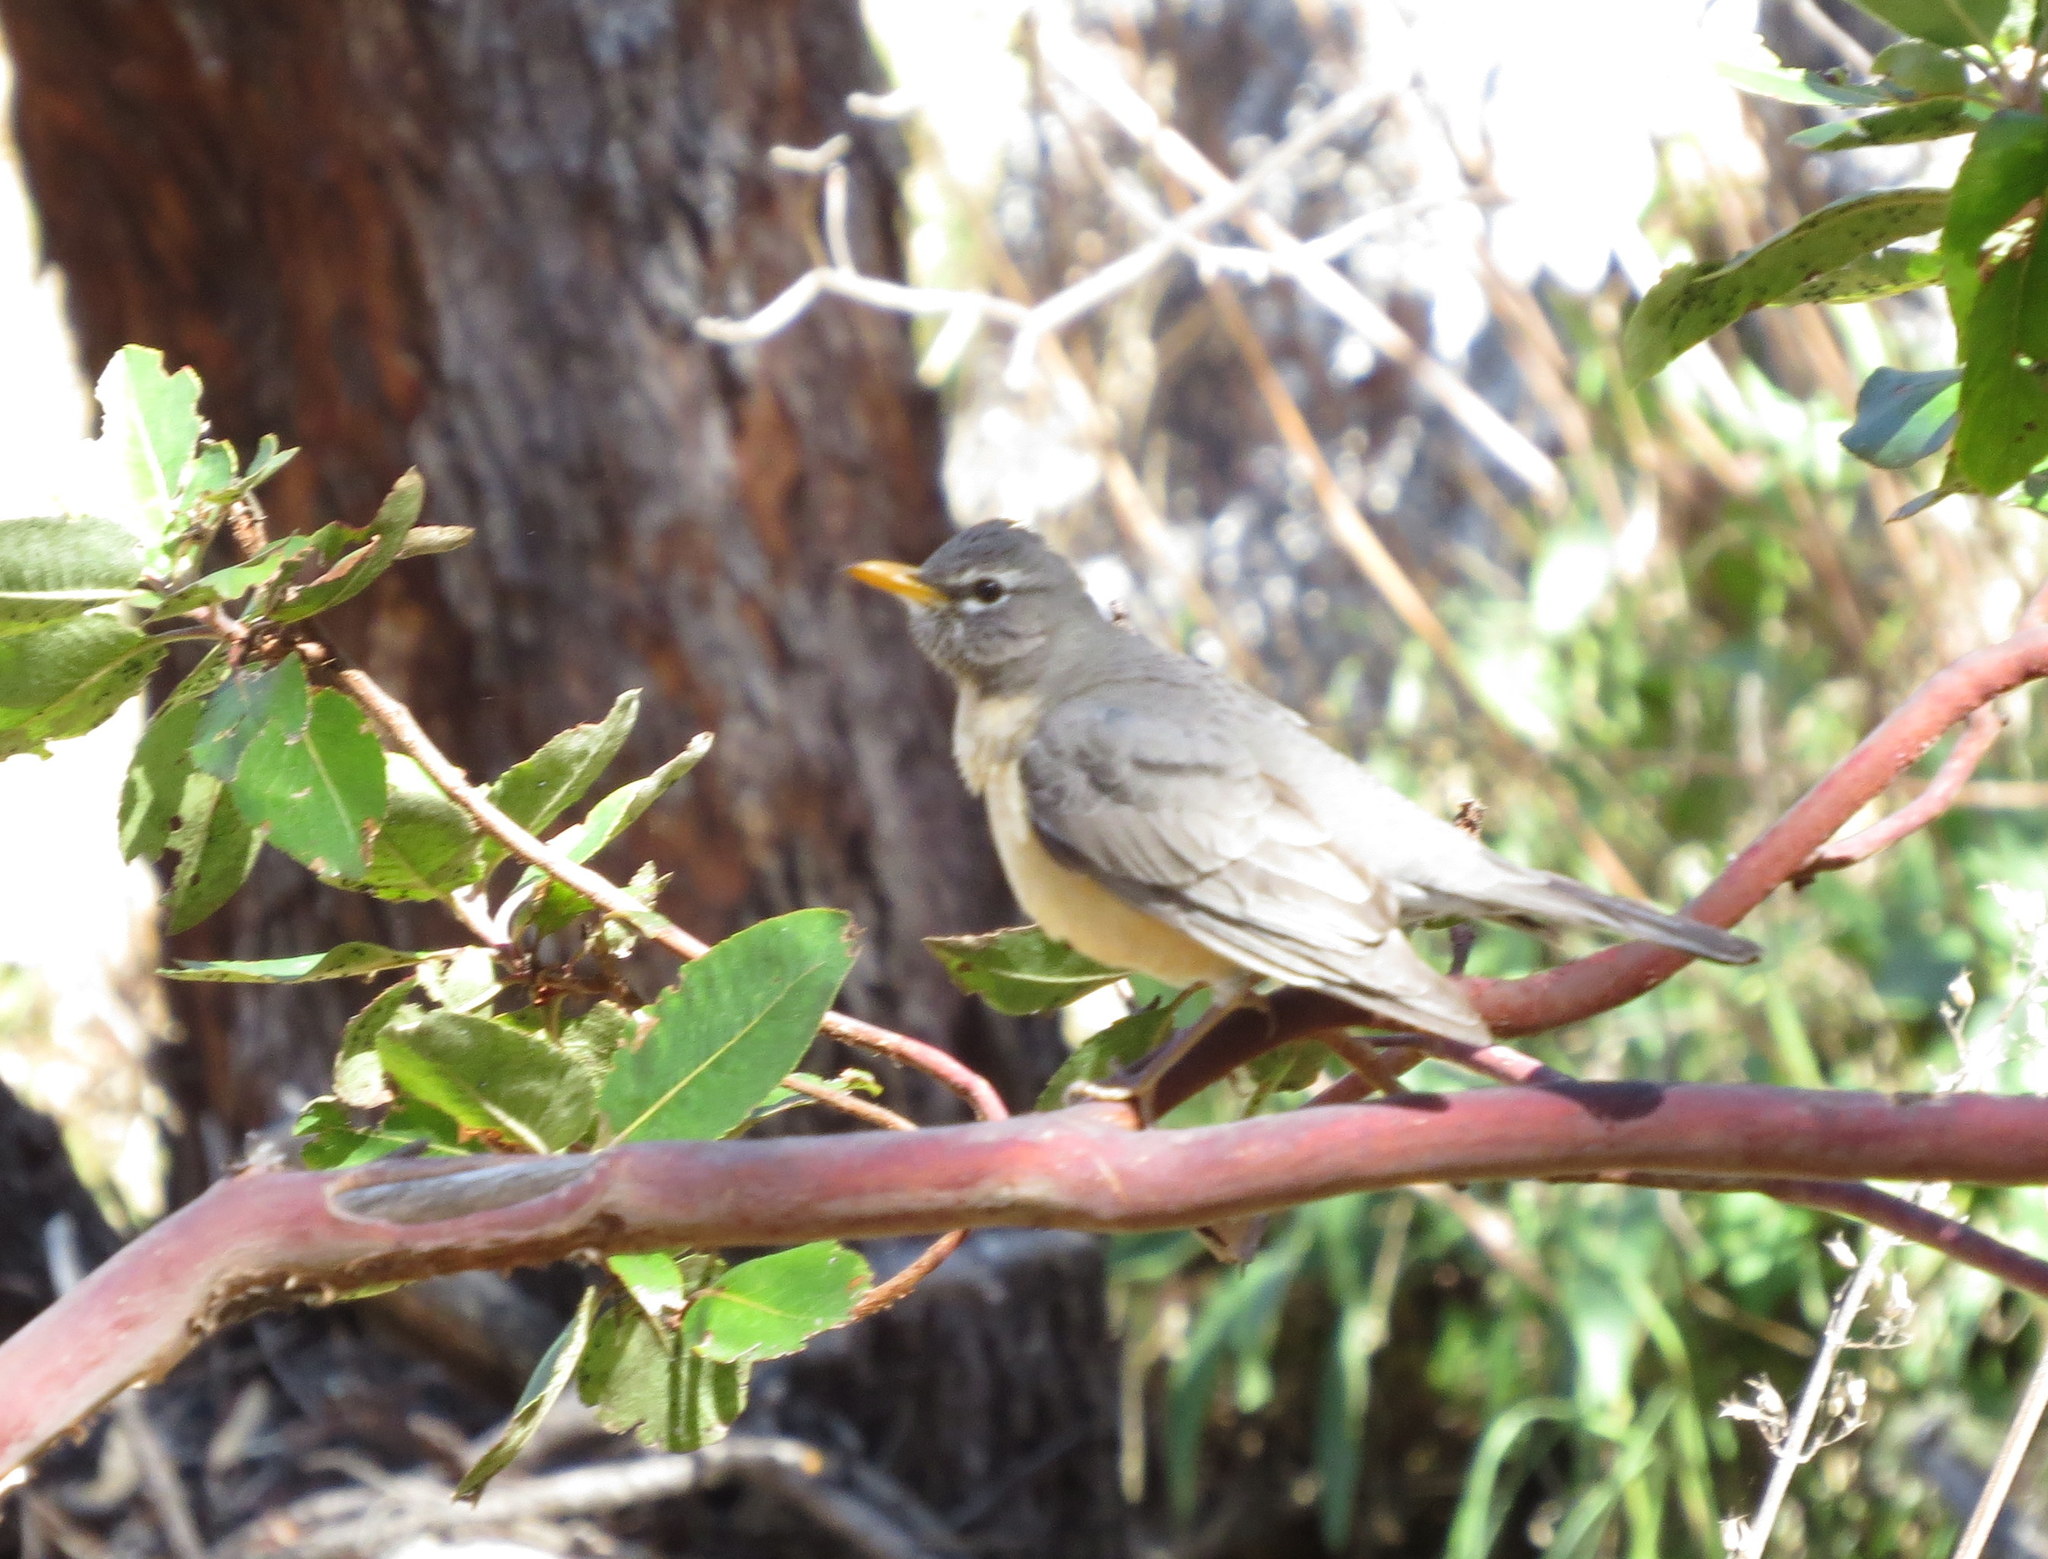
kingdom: Animalia
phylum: Chordata
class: Aves
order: Passeriformes
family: Turdidae
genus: Turdus
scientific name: Turdus migratorius
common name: American robin
